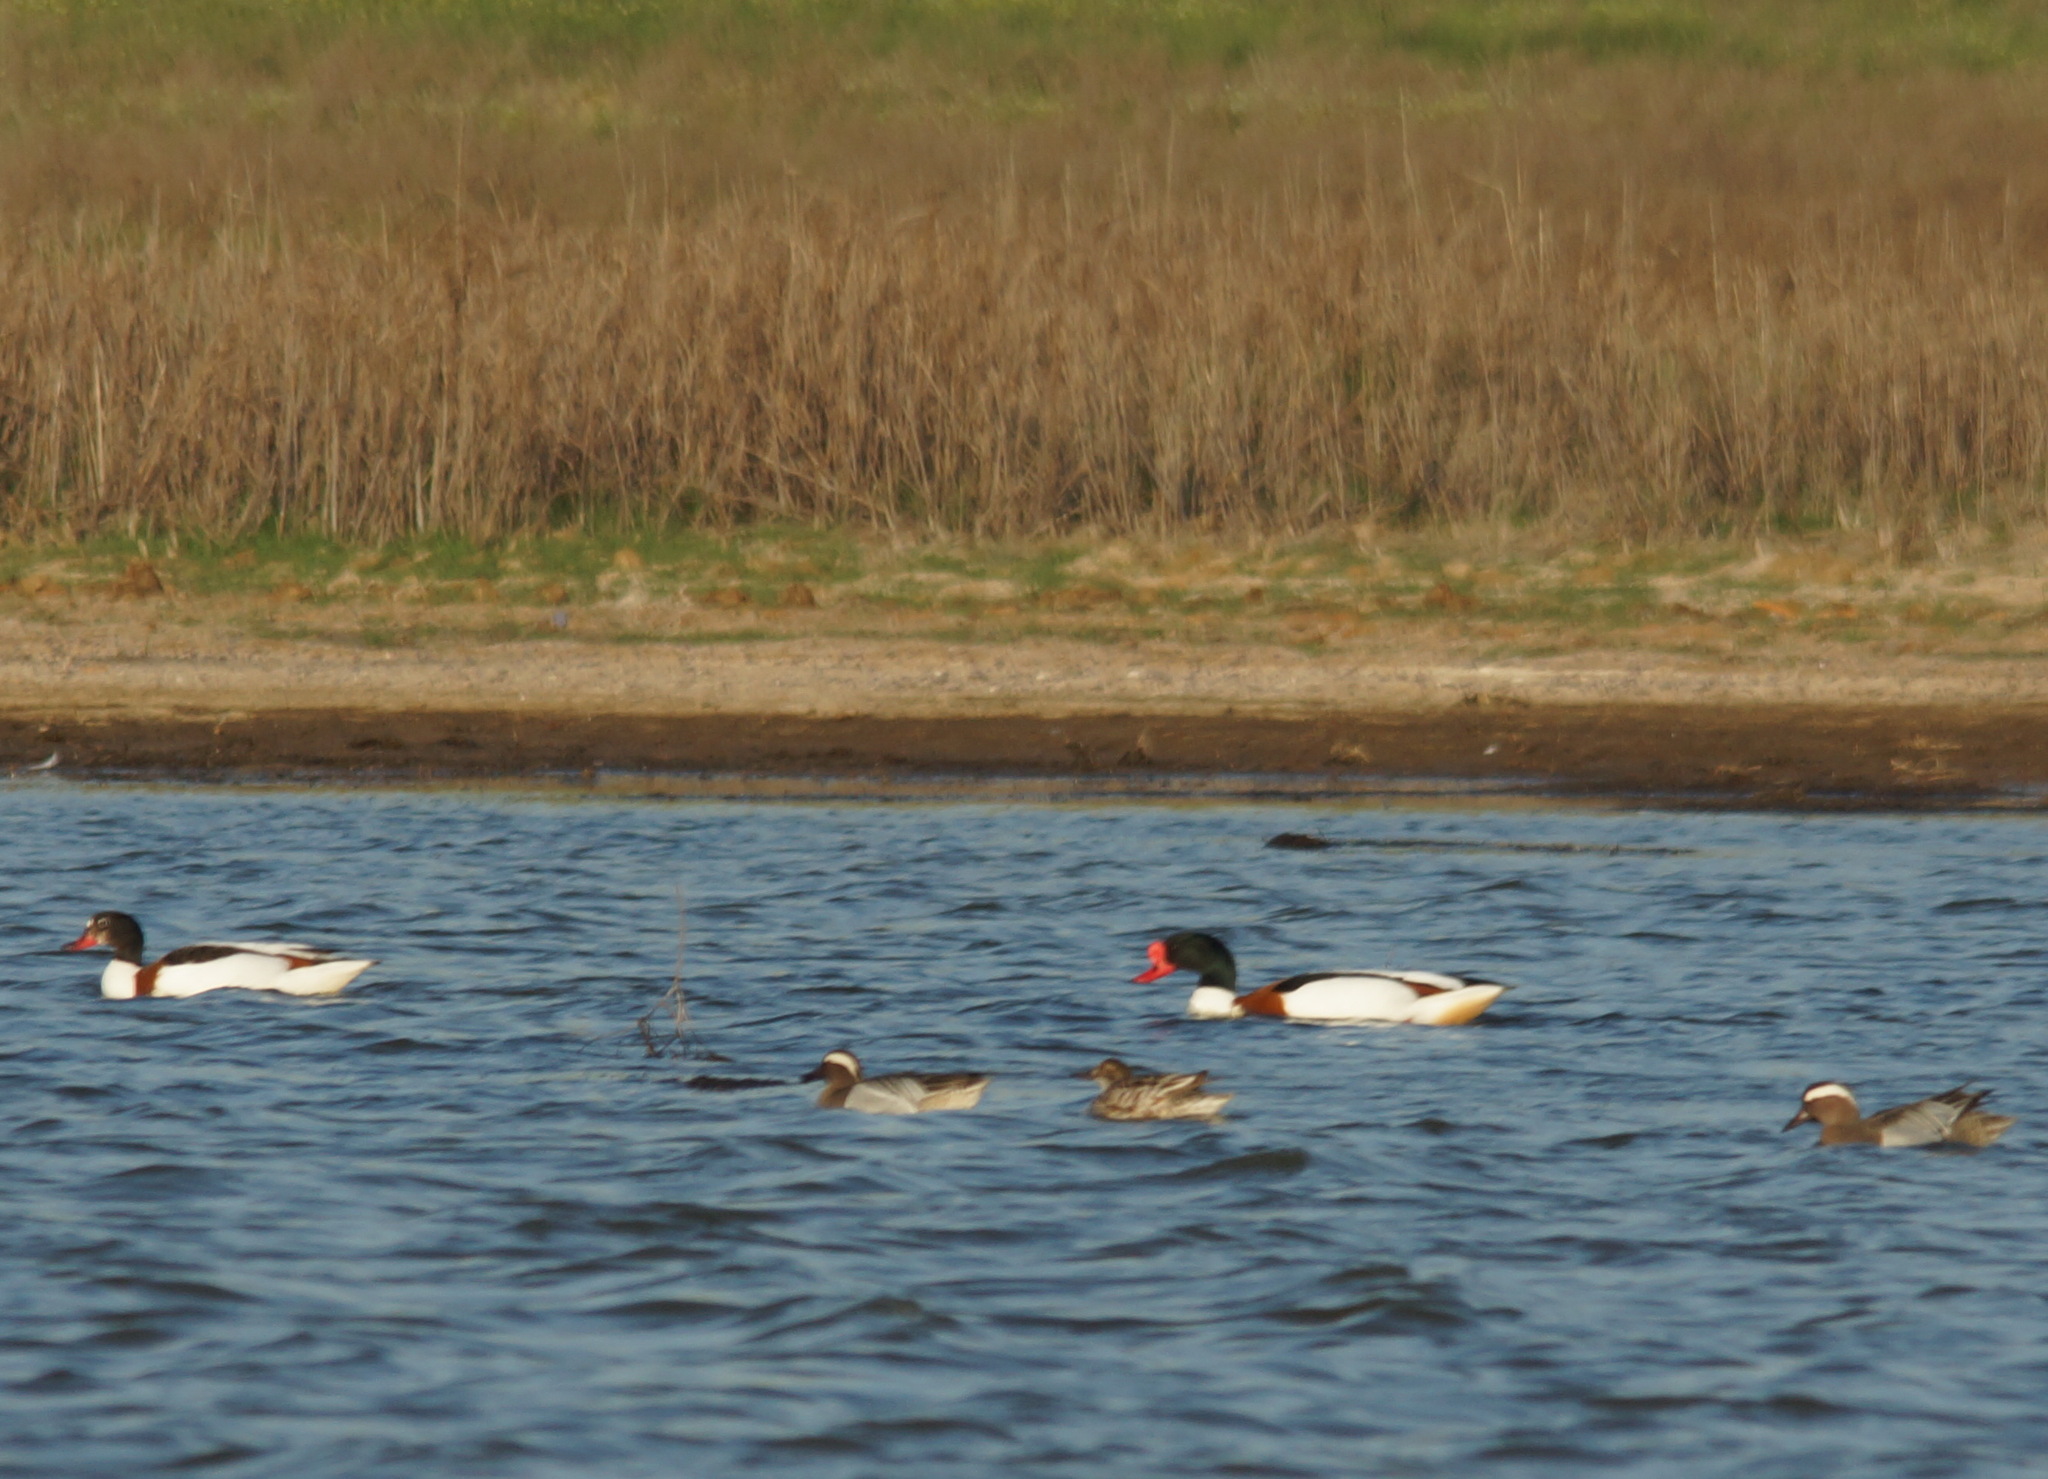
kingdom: Animalia
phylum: Chordata
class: Aves
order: Anseriformes
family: Anatidae
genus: Spatula
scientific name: Spatula querquedula
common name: Garganey
